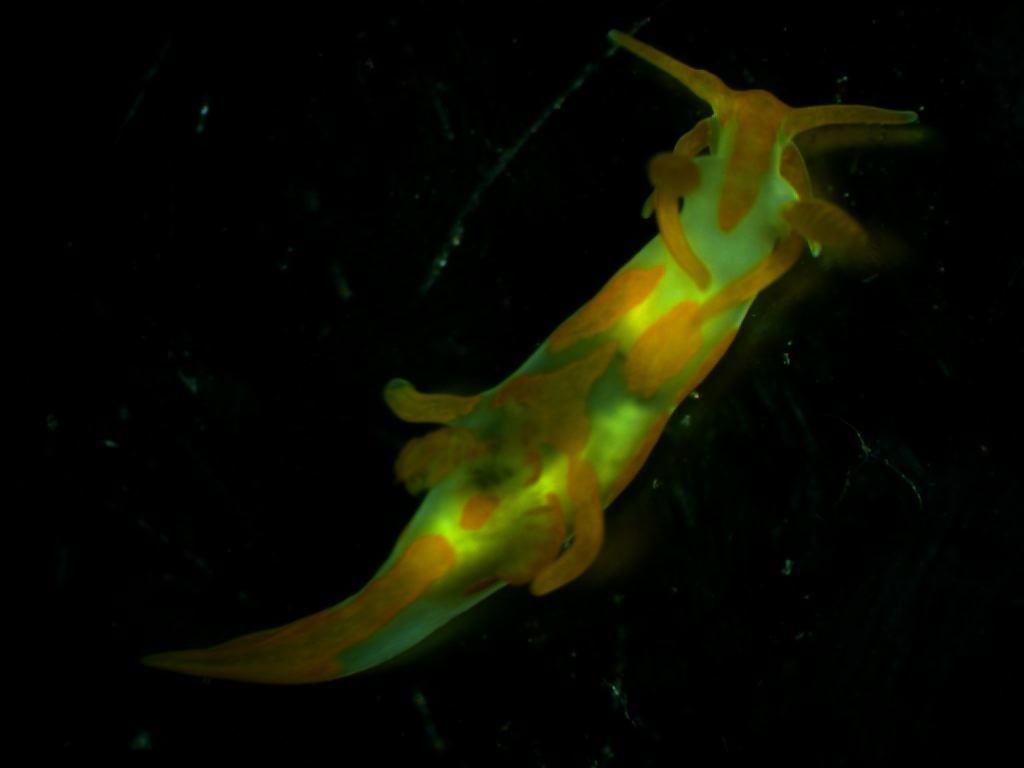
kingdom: Animalia
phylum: Mollusca
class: Gastropoda
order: Nudibranchia
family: Goniodorididae
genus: Trapania
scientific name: Trapania maculata
